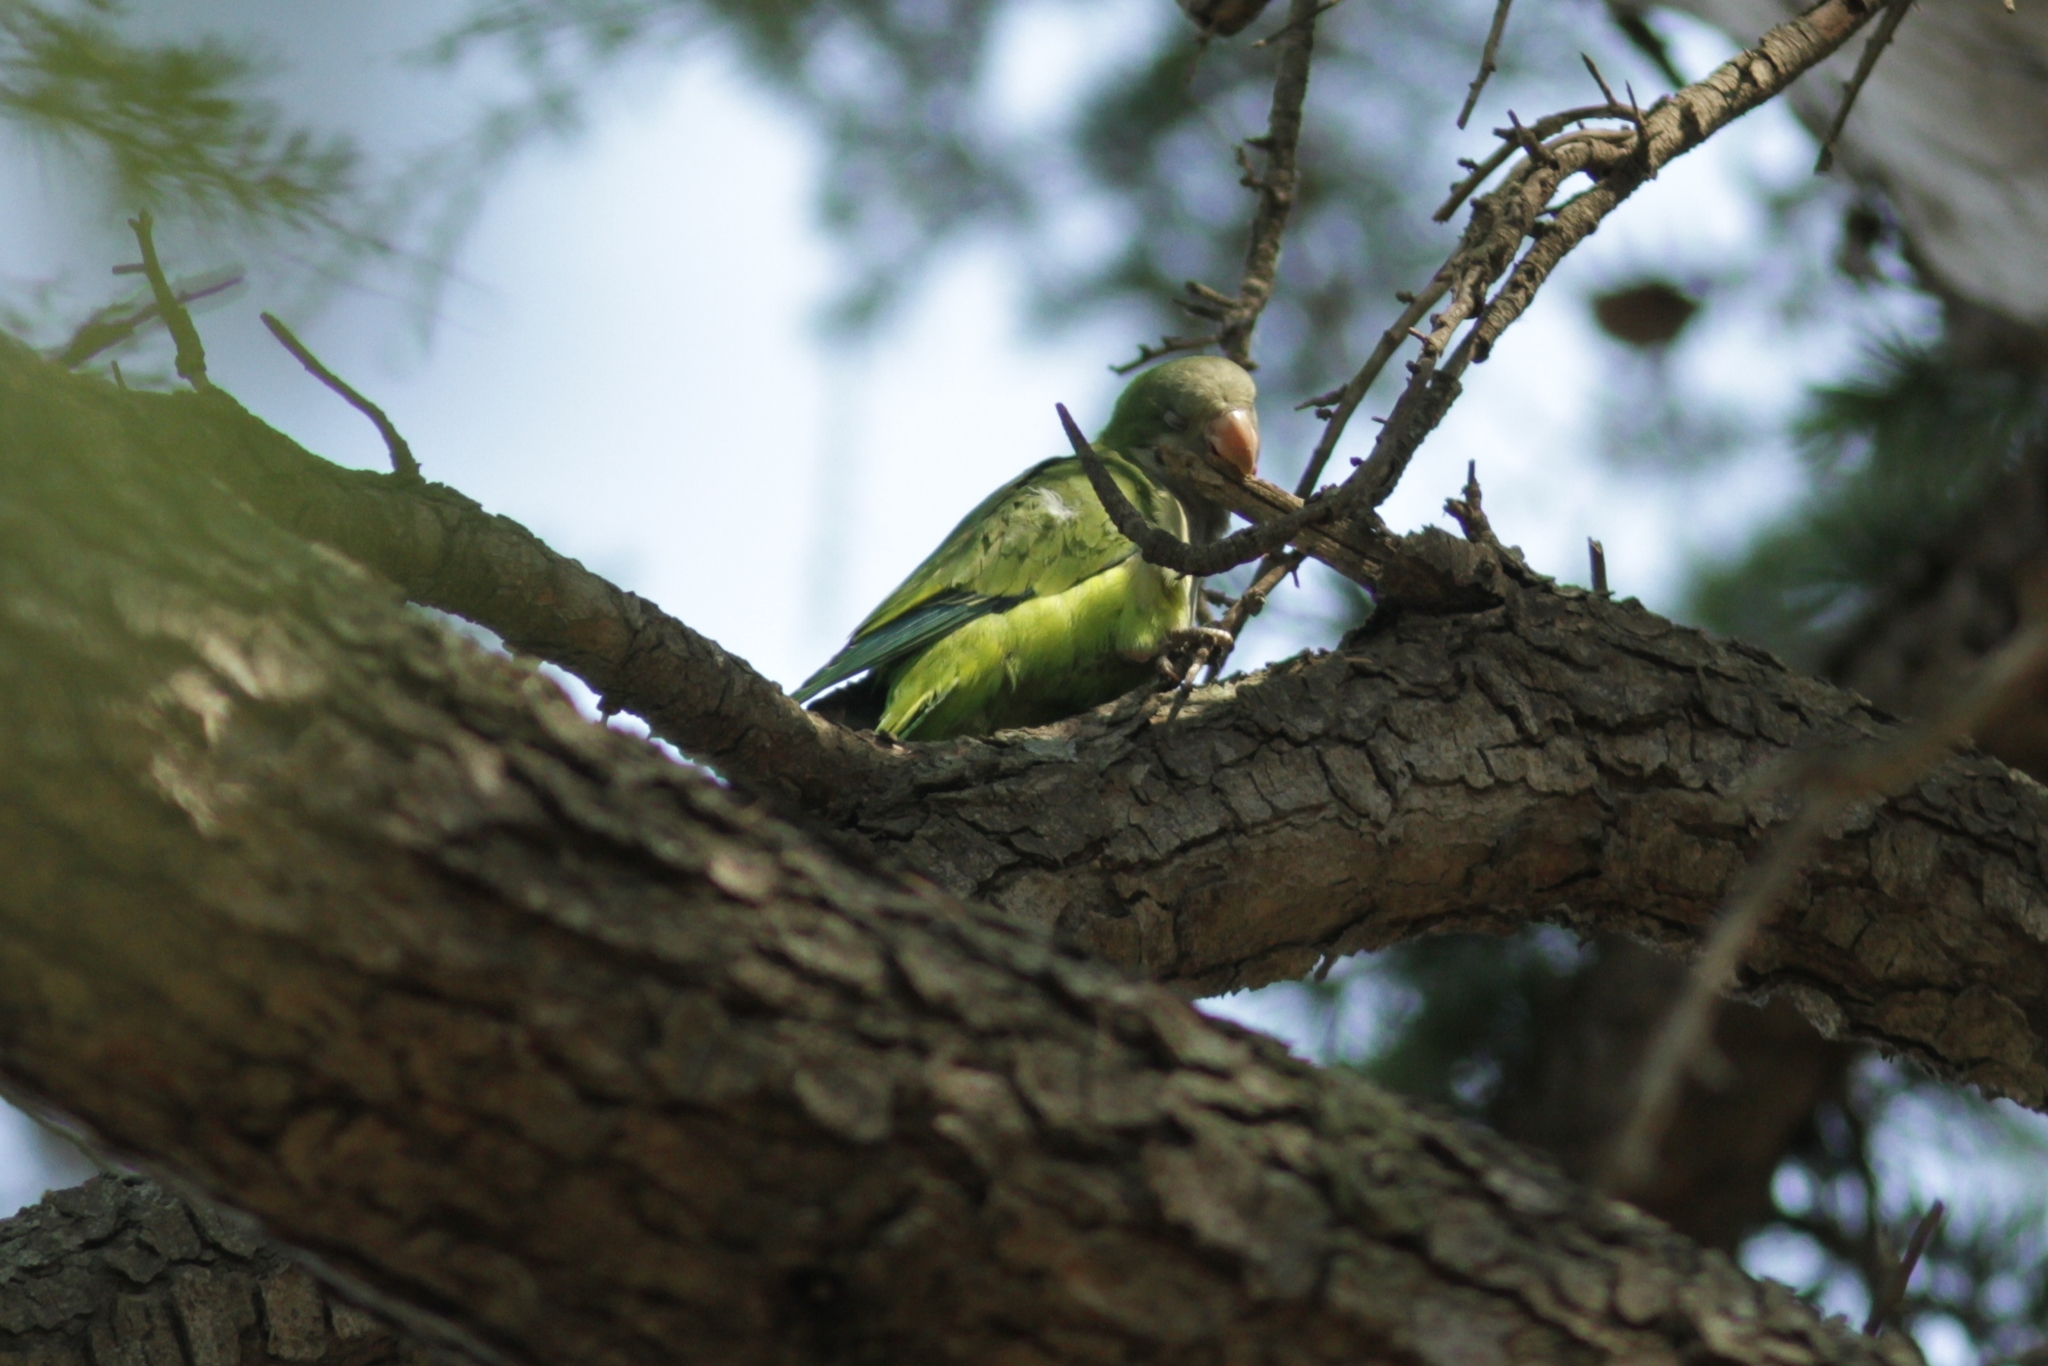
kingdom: Animalia
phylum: Chordata
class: Aves
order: Psittaciformes
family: Psittacidae
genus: Myiopsitta
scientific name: Myiopsitta monachus
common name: Monk parakeet
